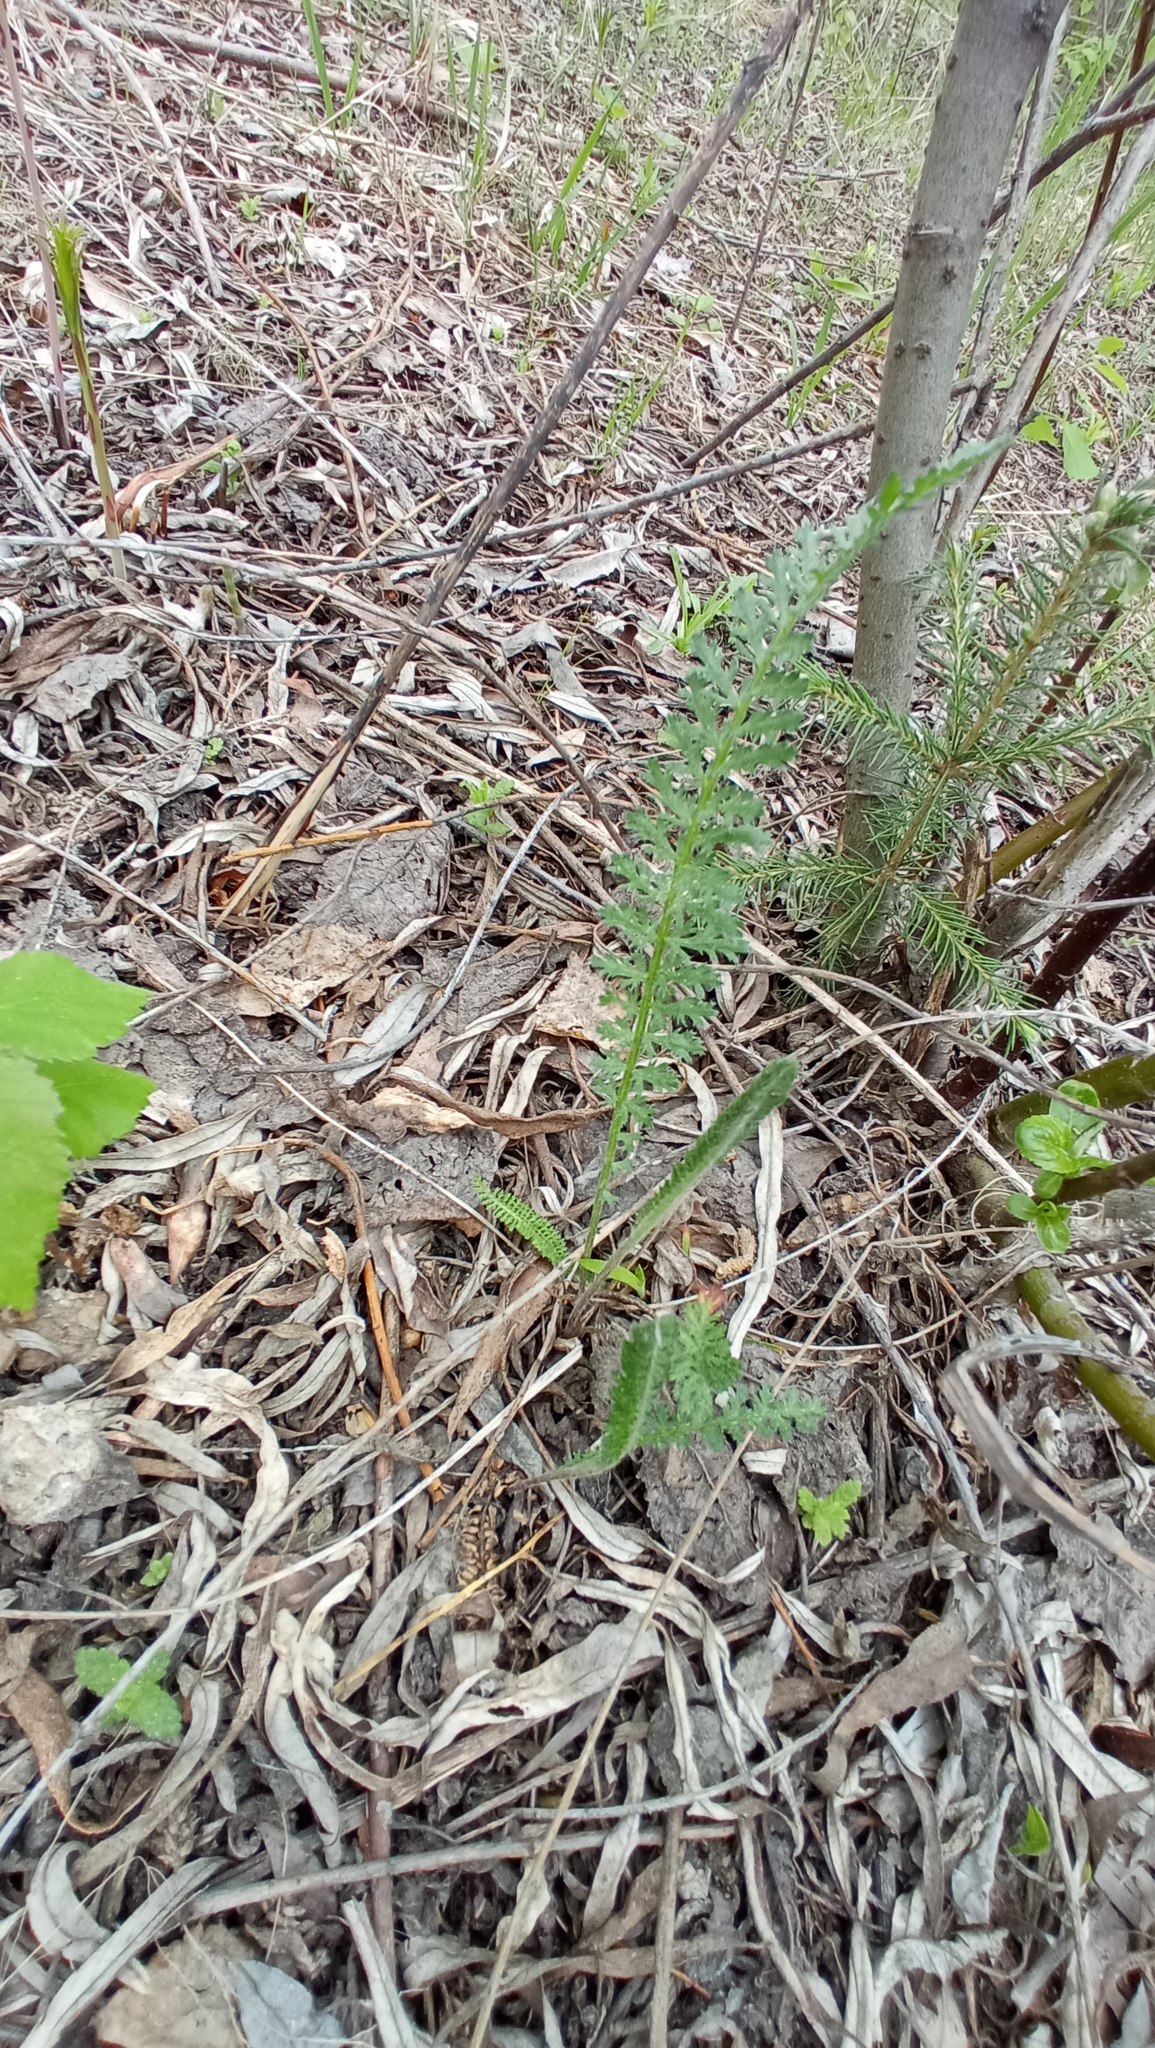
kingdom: Plantae
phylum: Tracheophyta
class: Magnoliopsida
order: Asterales
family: Asteraceae
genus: Achillea
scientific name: Achillea millefolium
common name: Yarrow
